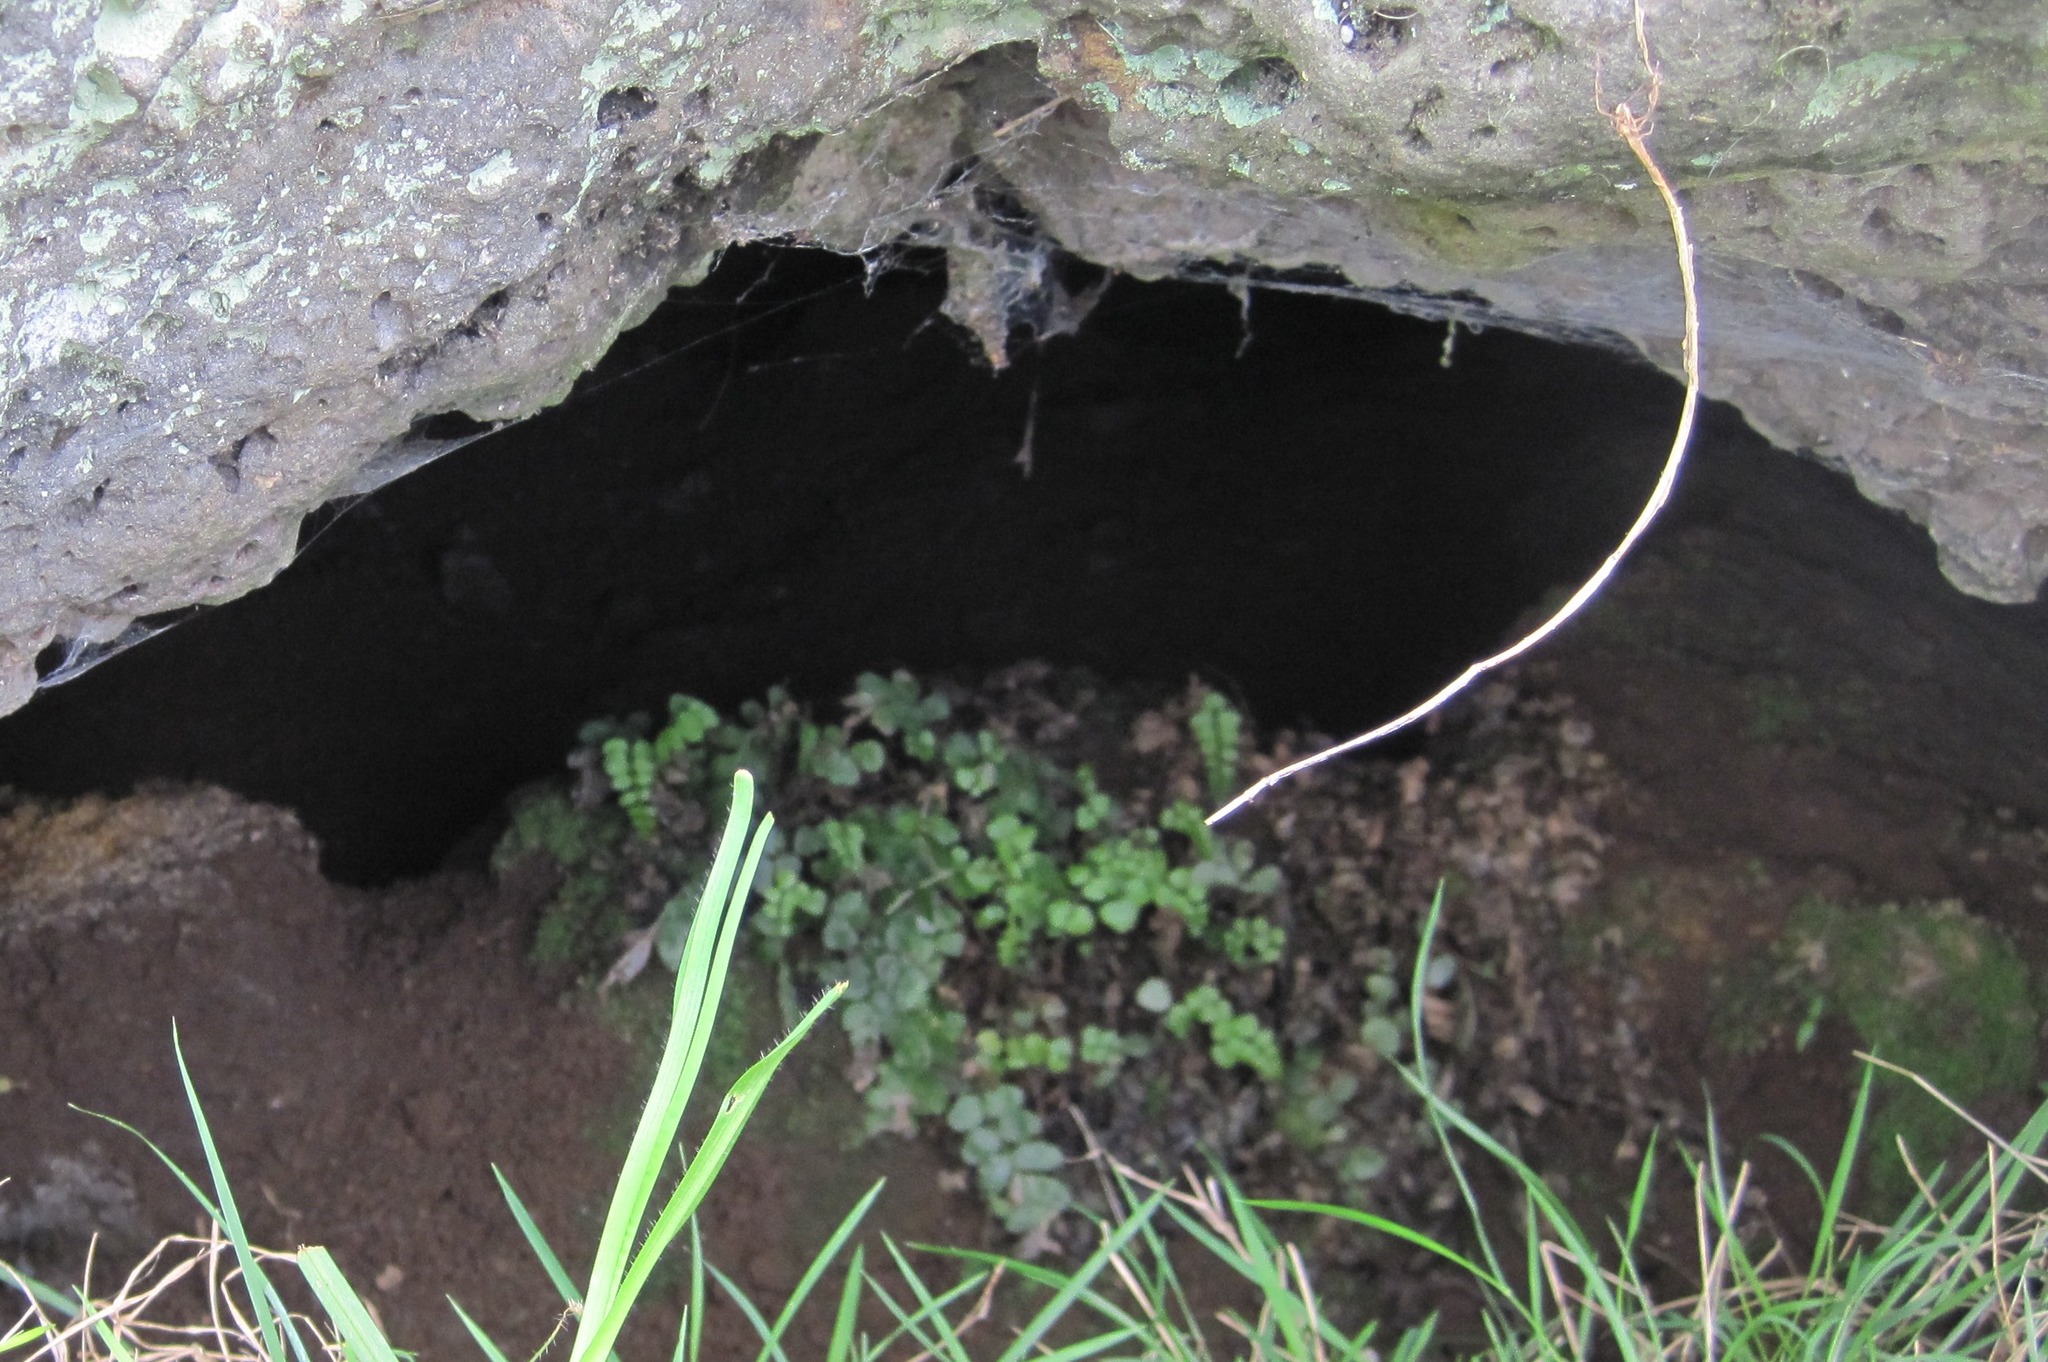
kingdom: Plantae
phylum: Tracheophyta
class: Polypodiopsida
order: Polypodiales
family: Pteridaceae
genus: Pellaea
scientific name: Pellaea rotundifolia
